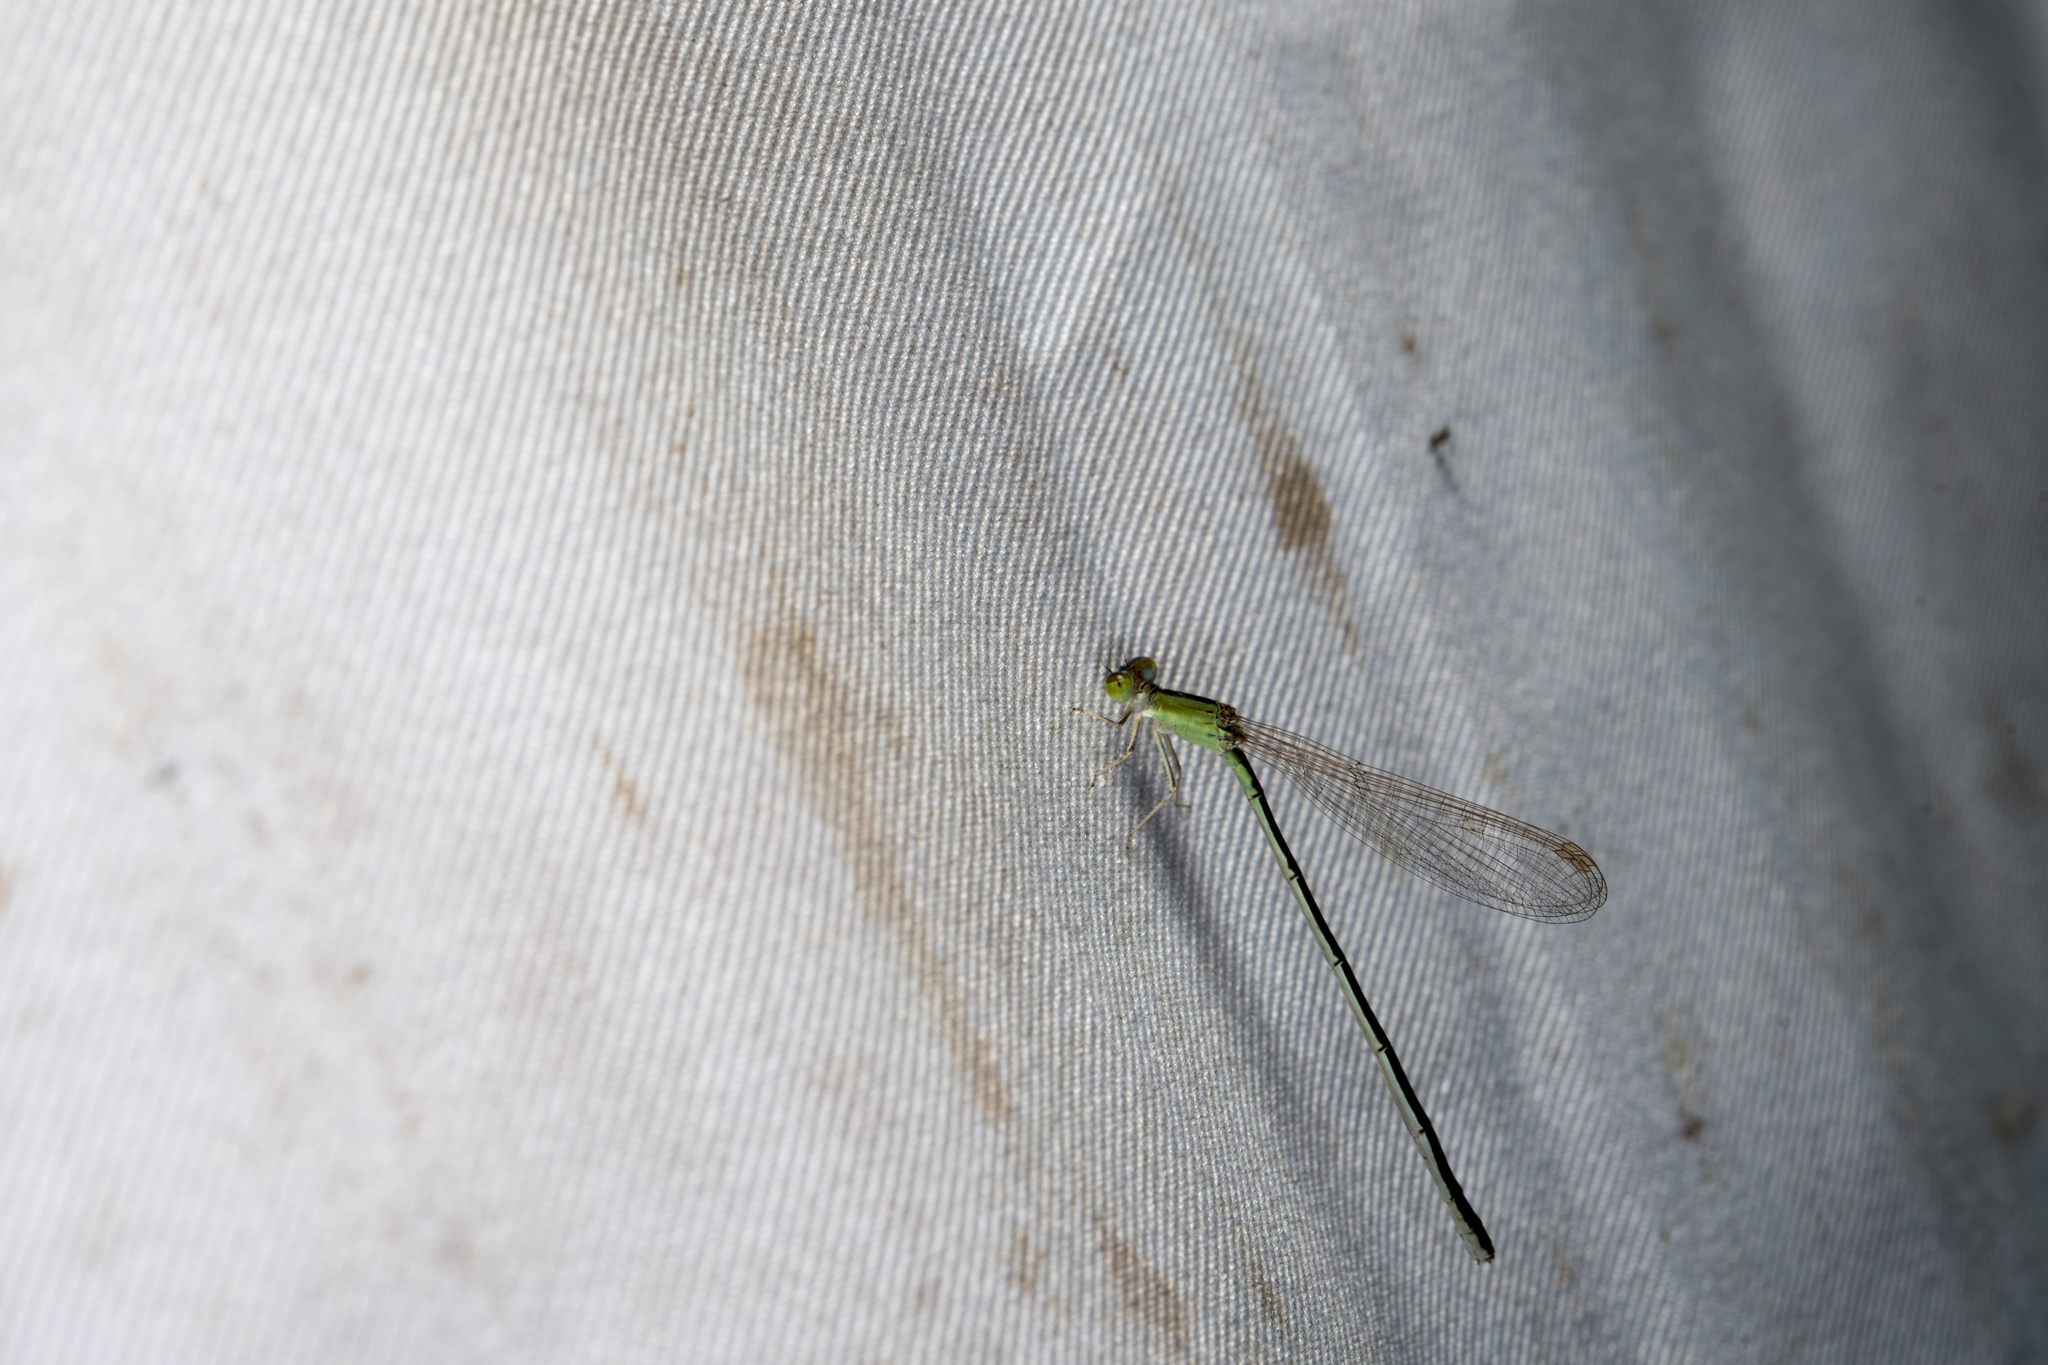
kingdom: Animalia
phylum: Arthropoda
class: Insecta
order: Odonata
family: Coenagrionidae
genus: Ischnura
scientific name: Ischnura asiatica
